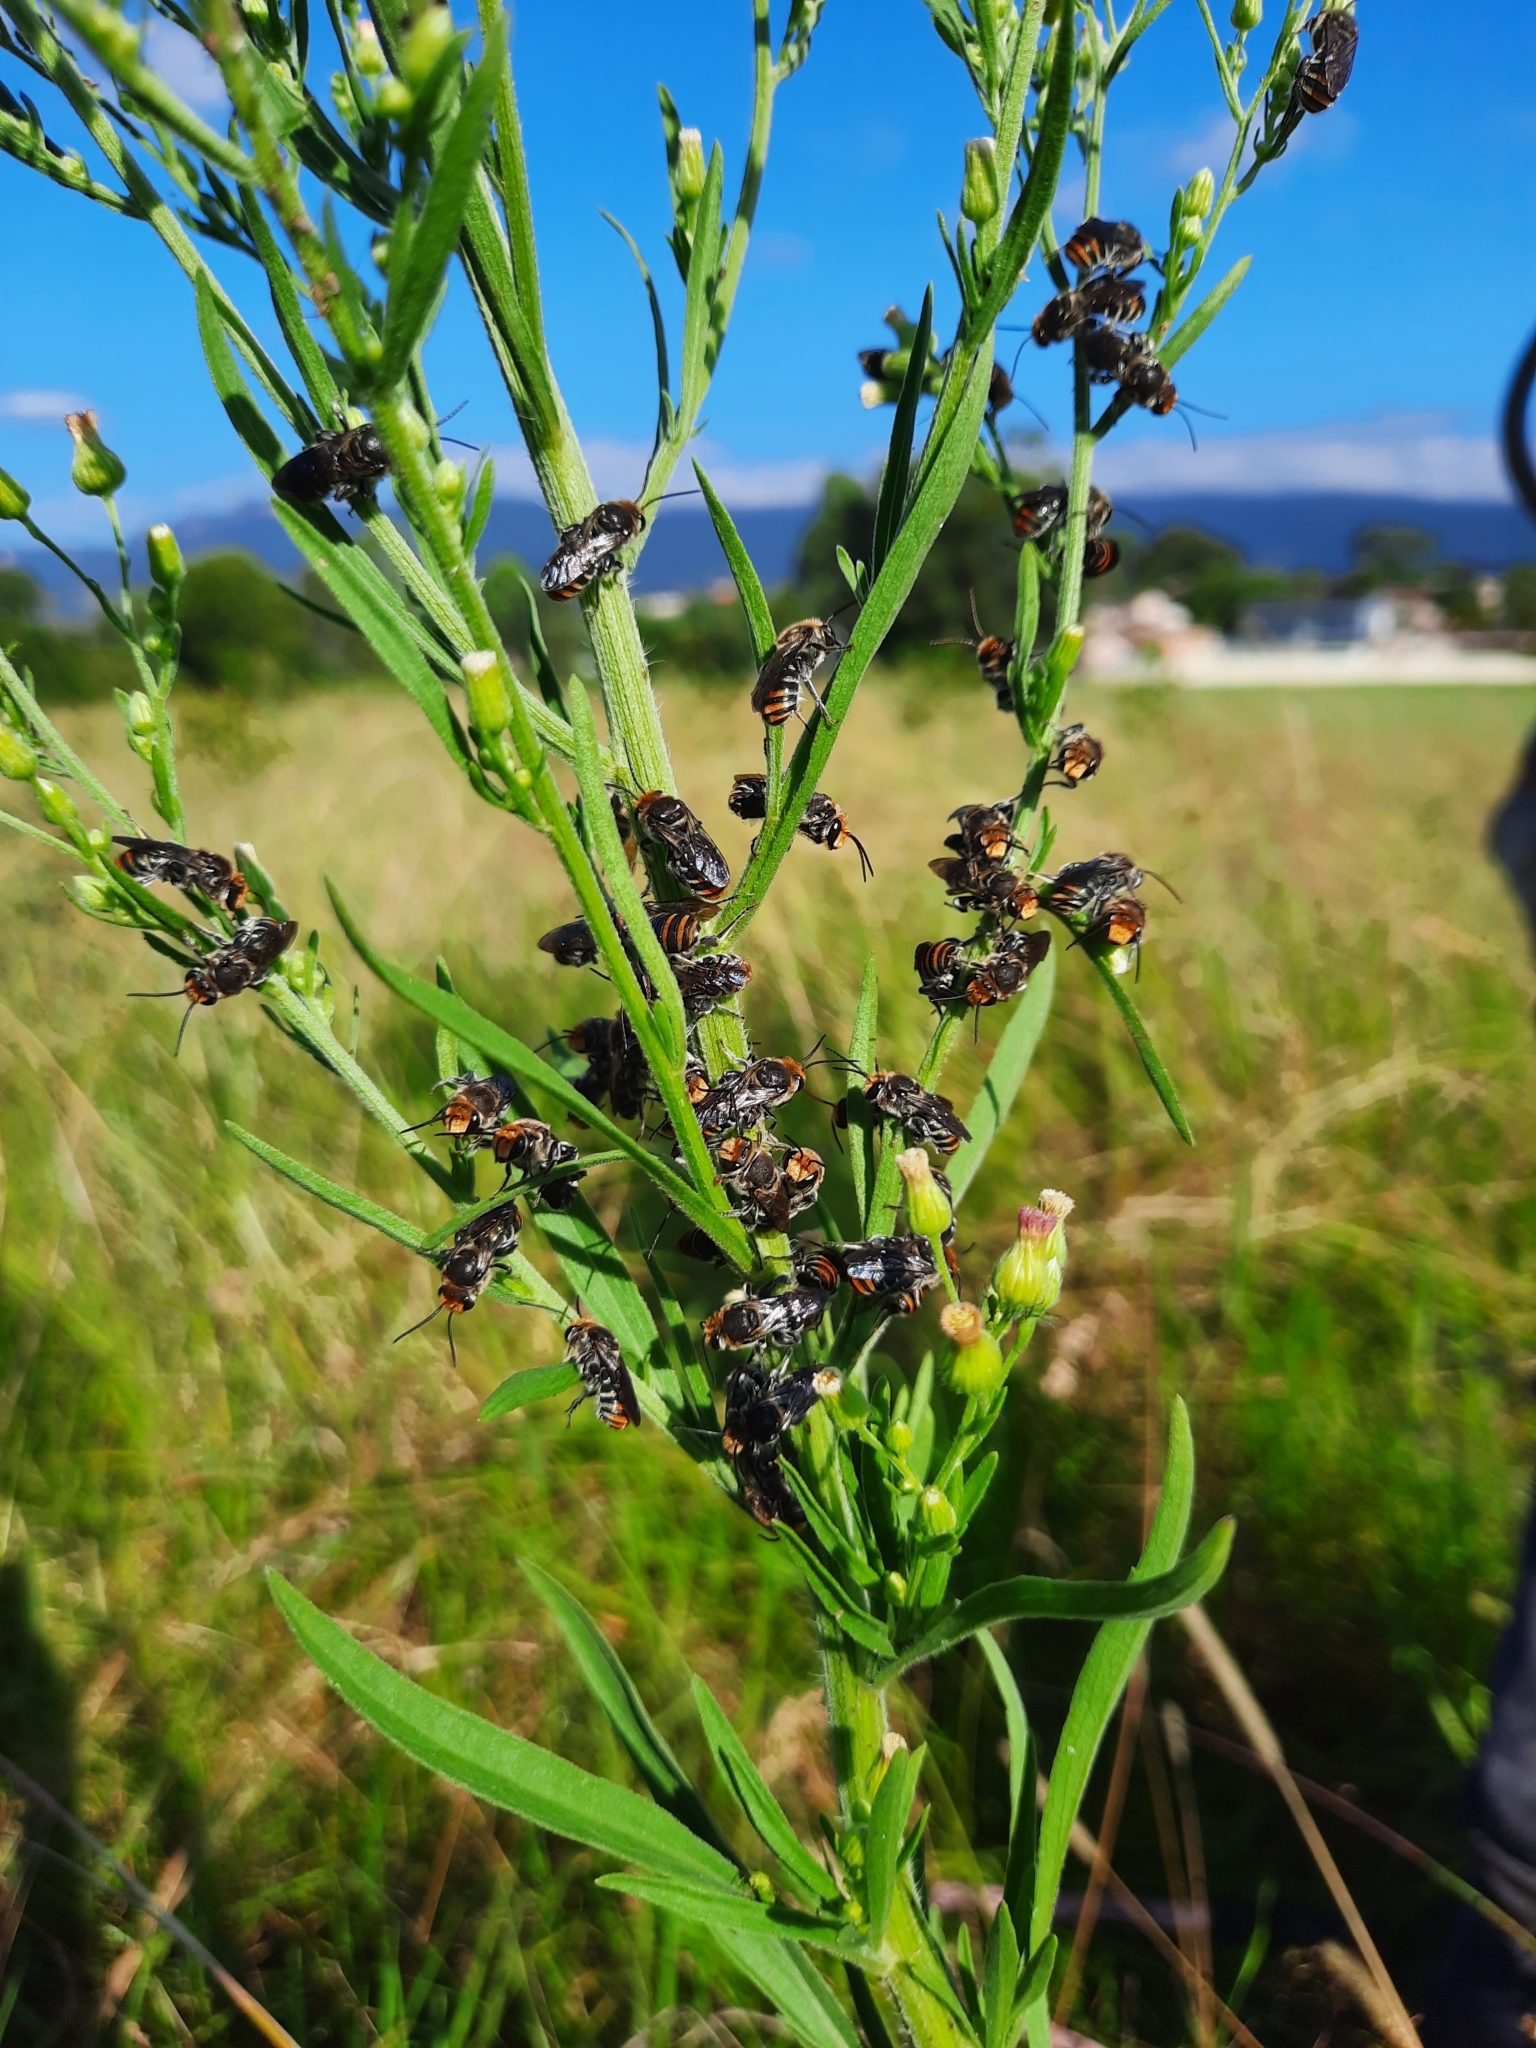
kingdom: Animalia
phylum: Arthropoda
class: Insecta
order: Hymenoptera
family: Halictidae
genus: Lipotriches
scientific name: Lipotriches australica
